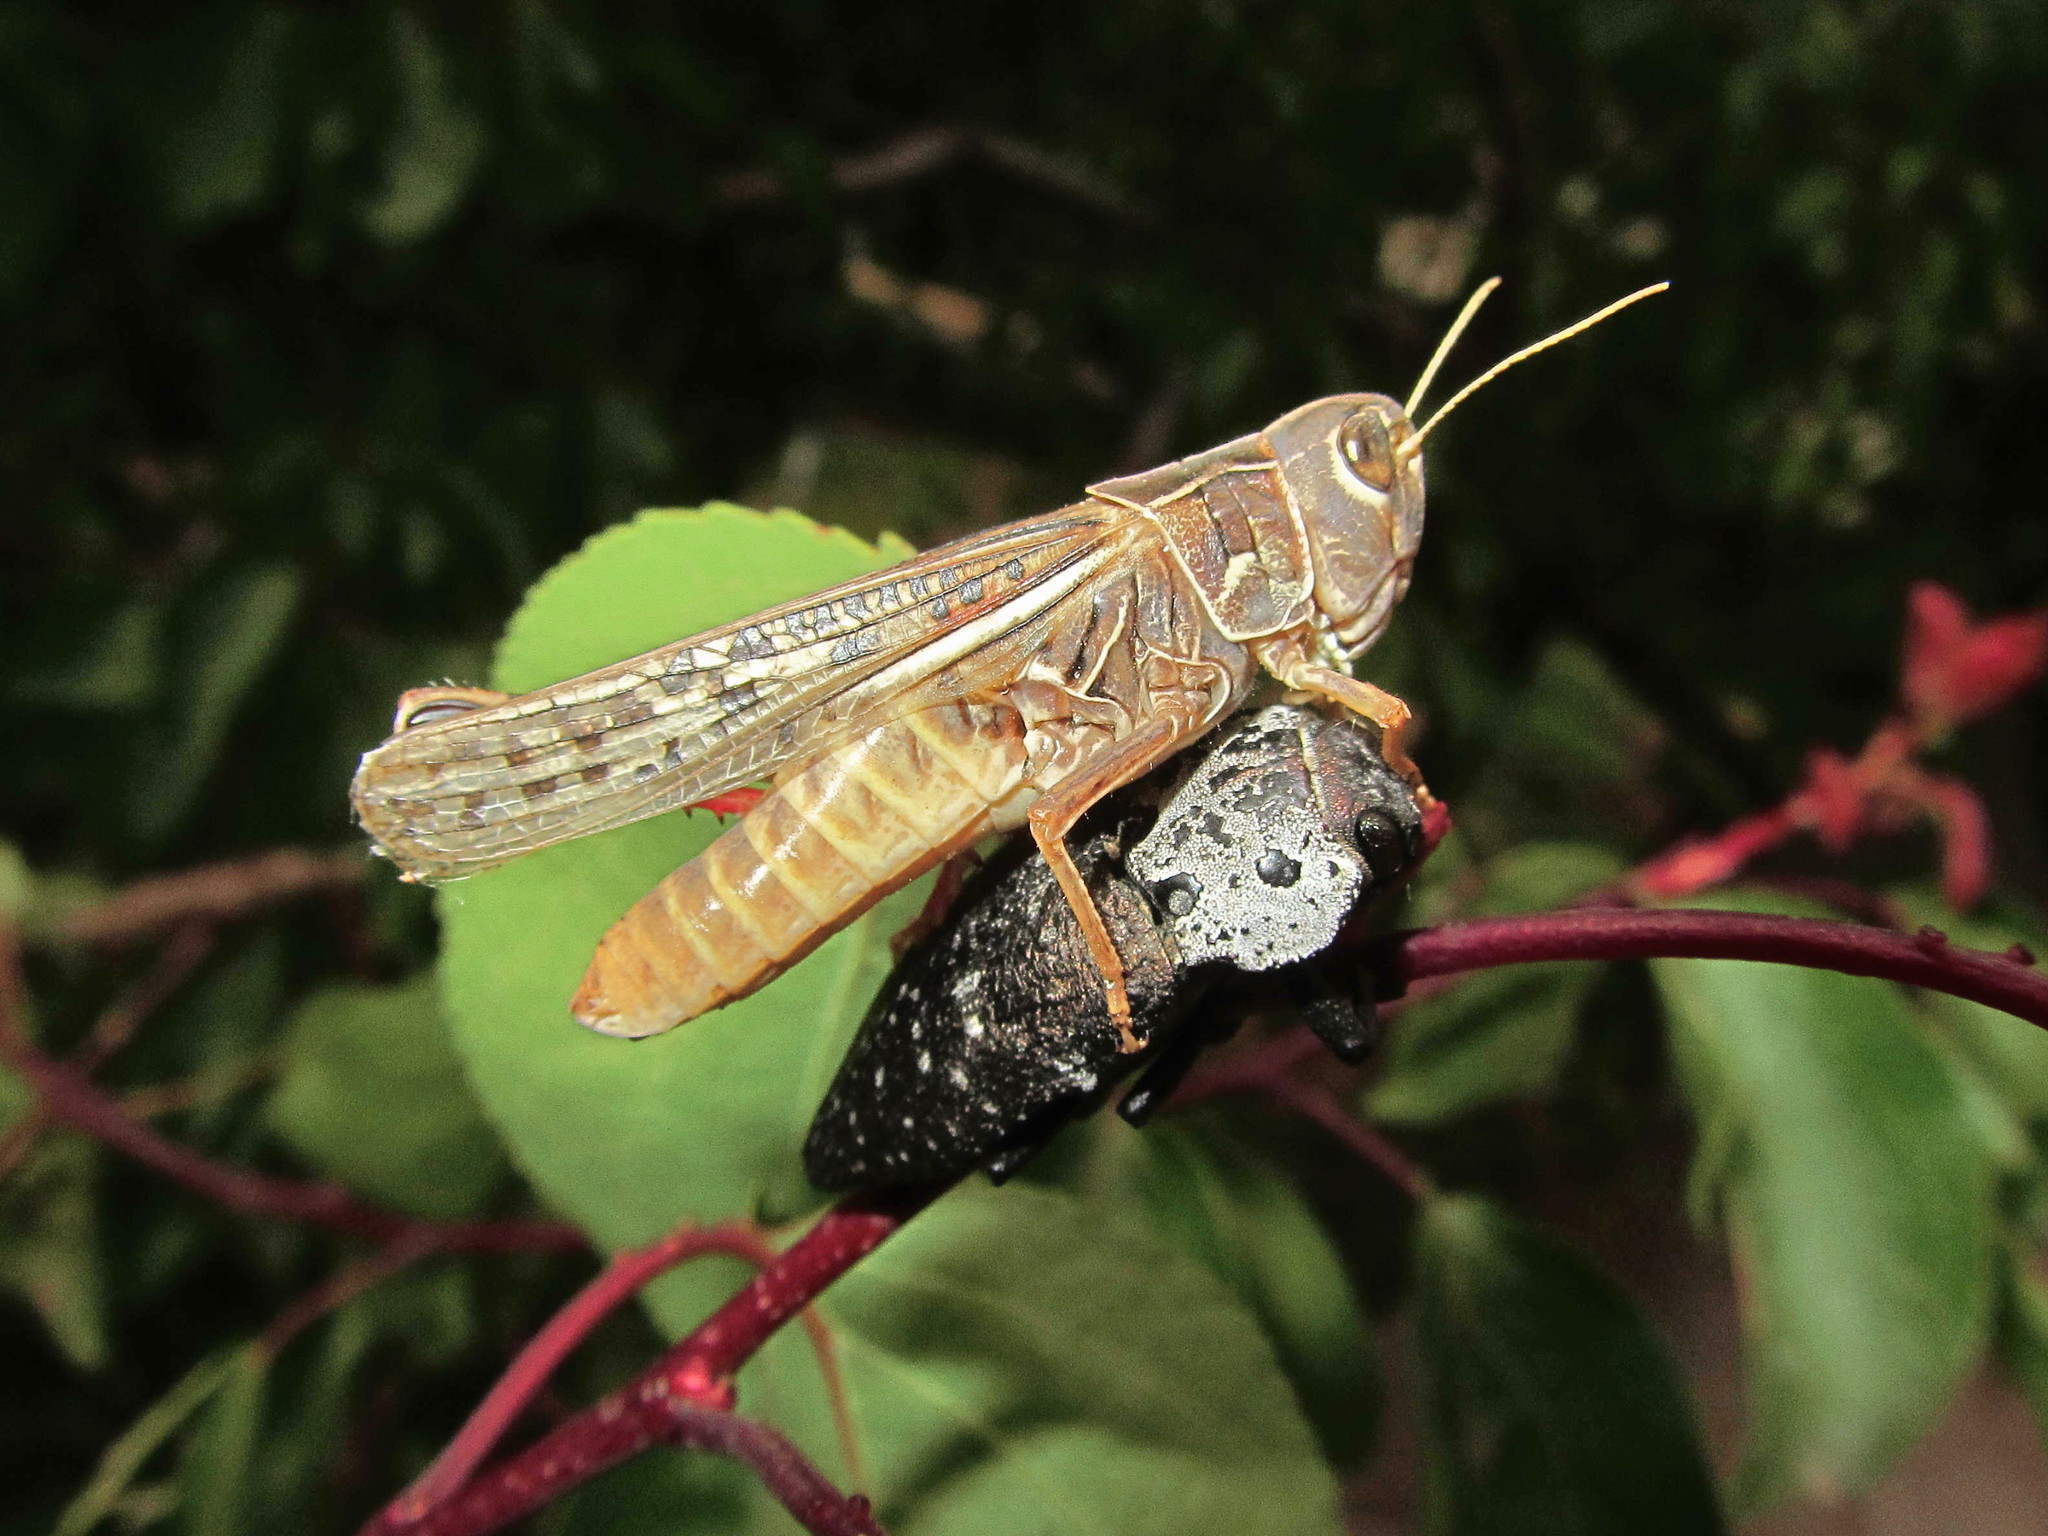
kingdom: Animalia
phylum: Arthropoda
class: Insecta
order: Orthoptera
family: Acrididae
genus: Arcyptera
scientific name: Arcyptera microptera
